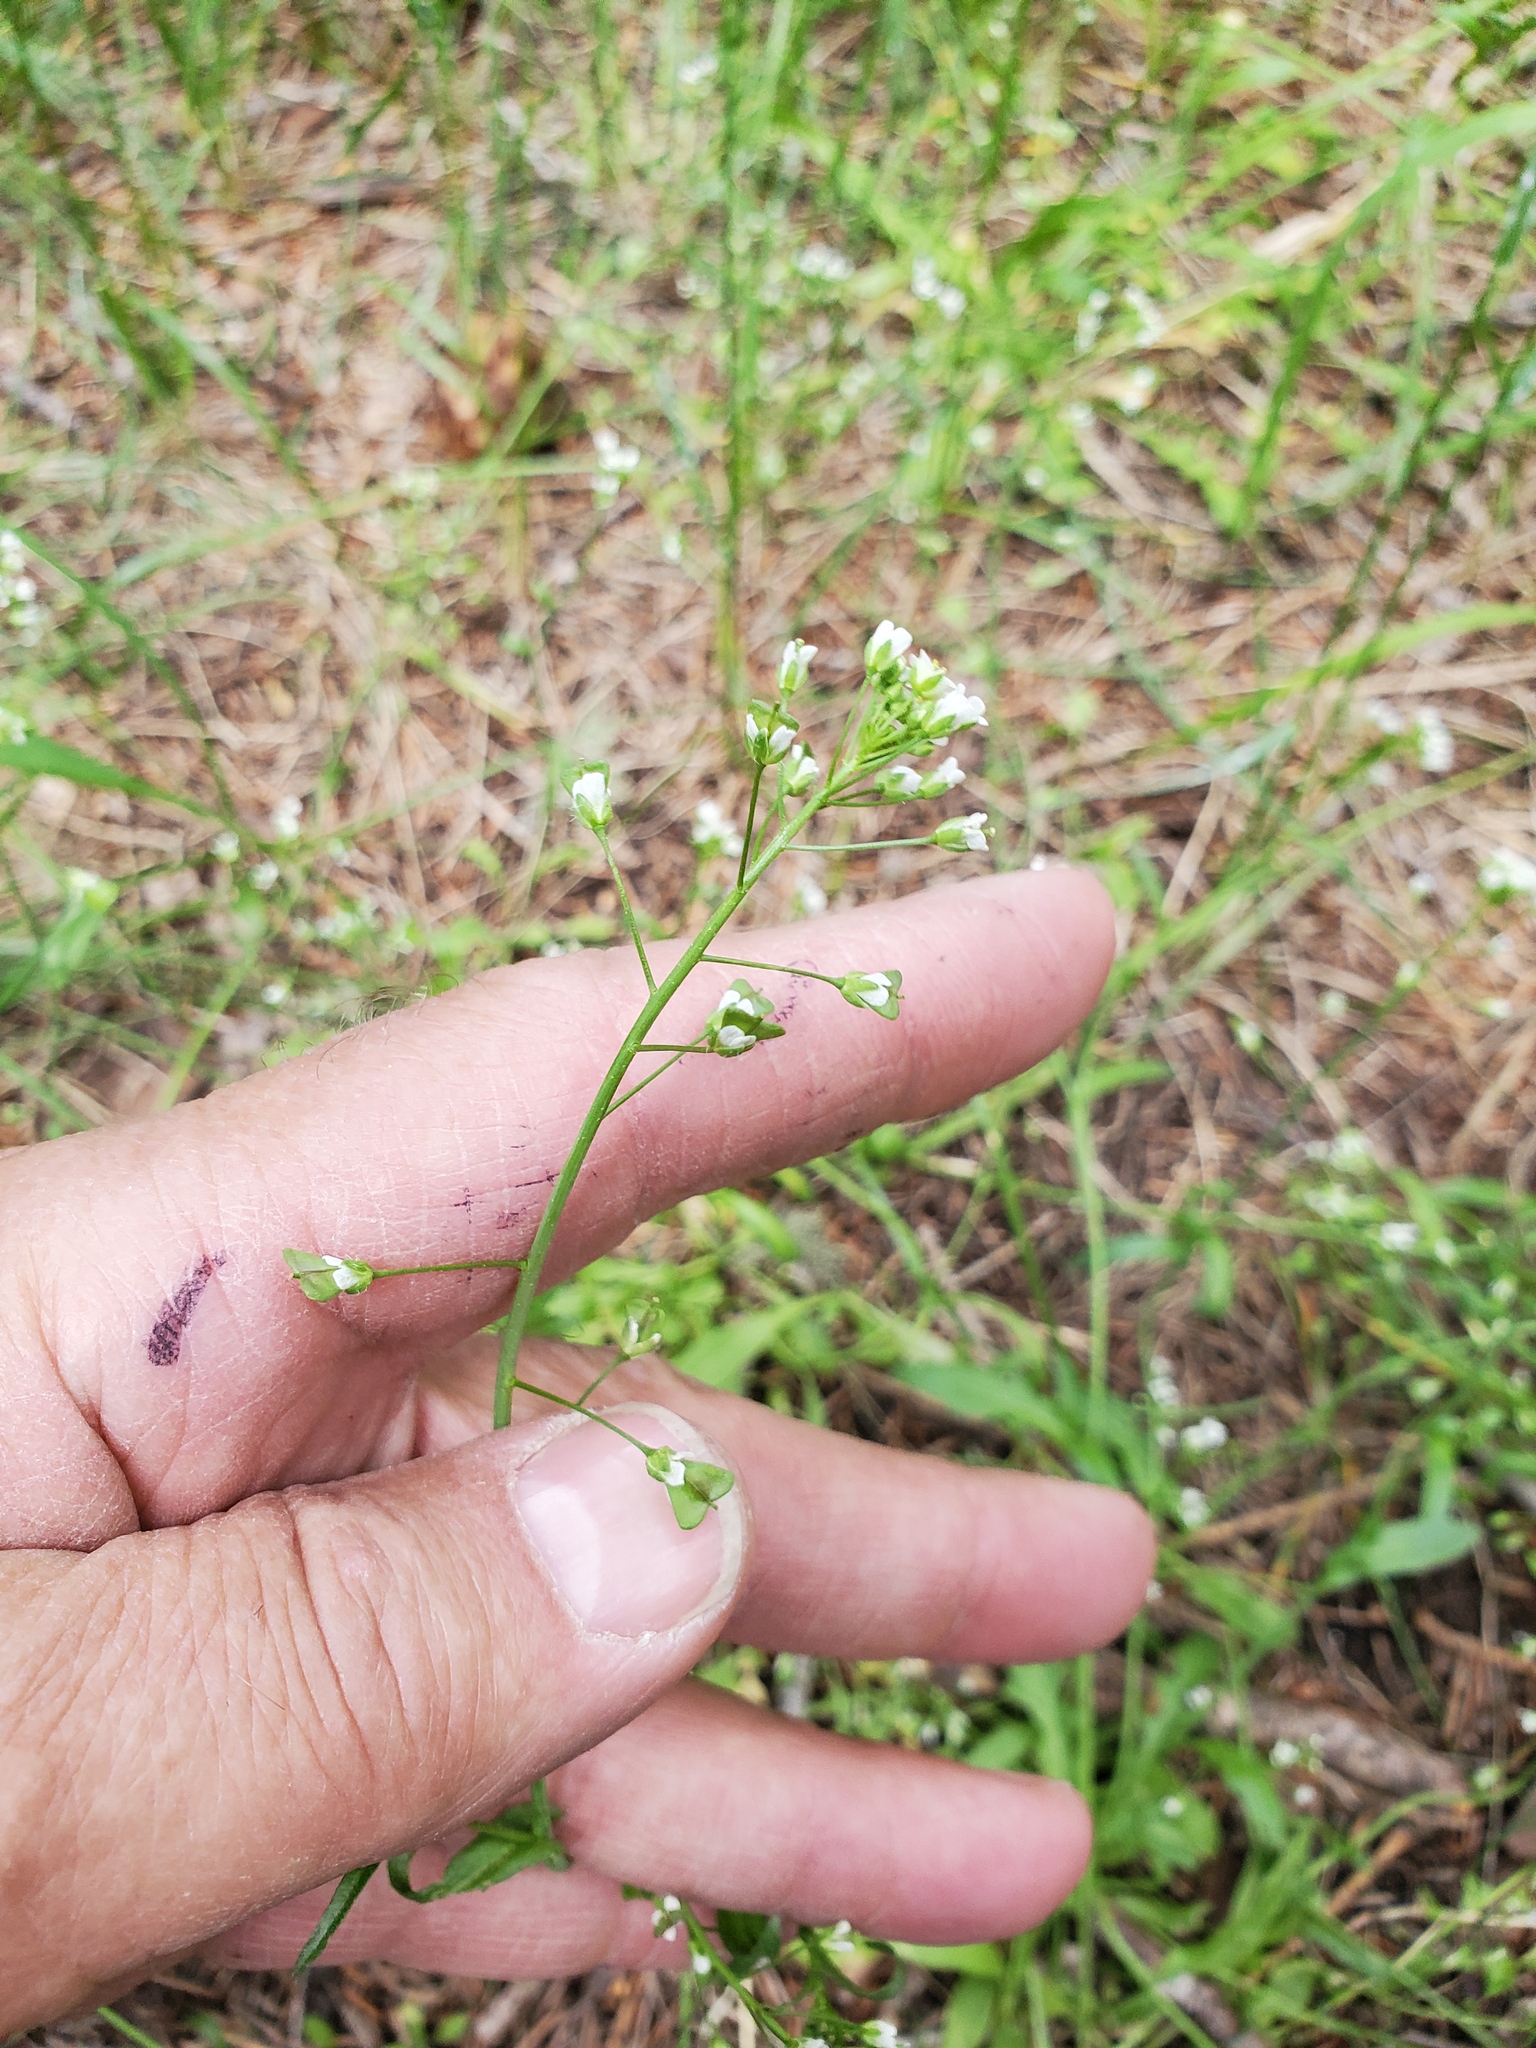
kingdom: Plantae
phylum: Tracheophyta
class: Magnoliopsida
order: Brassicales
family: Brassicaceae
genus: Capsella
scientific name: Capsella bursa-pastoris
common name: Shepherd's purse
